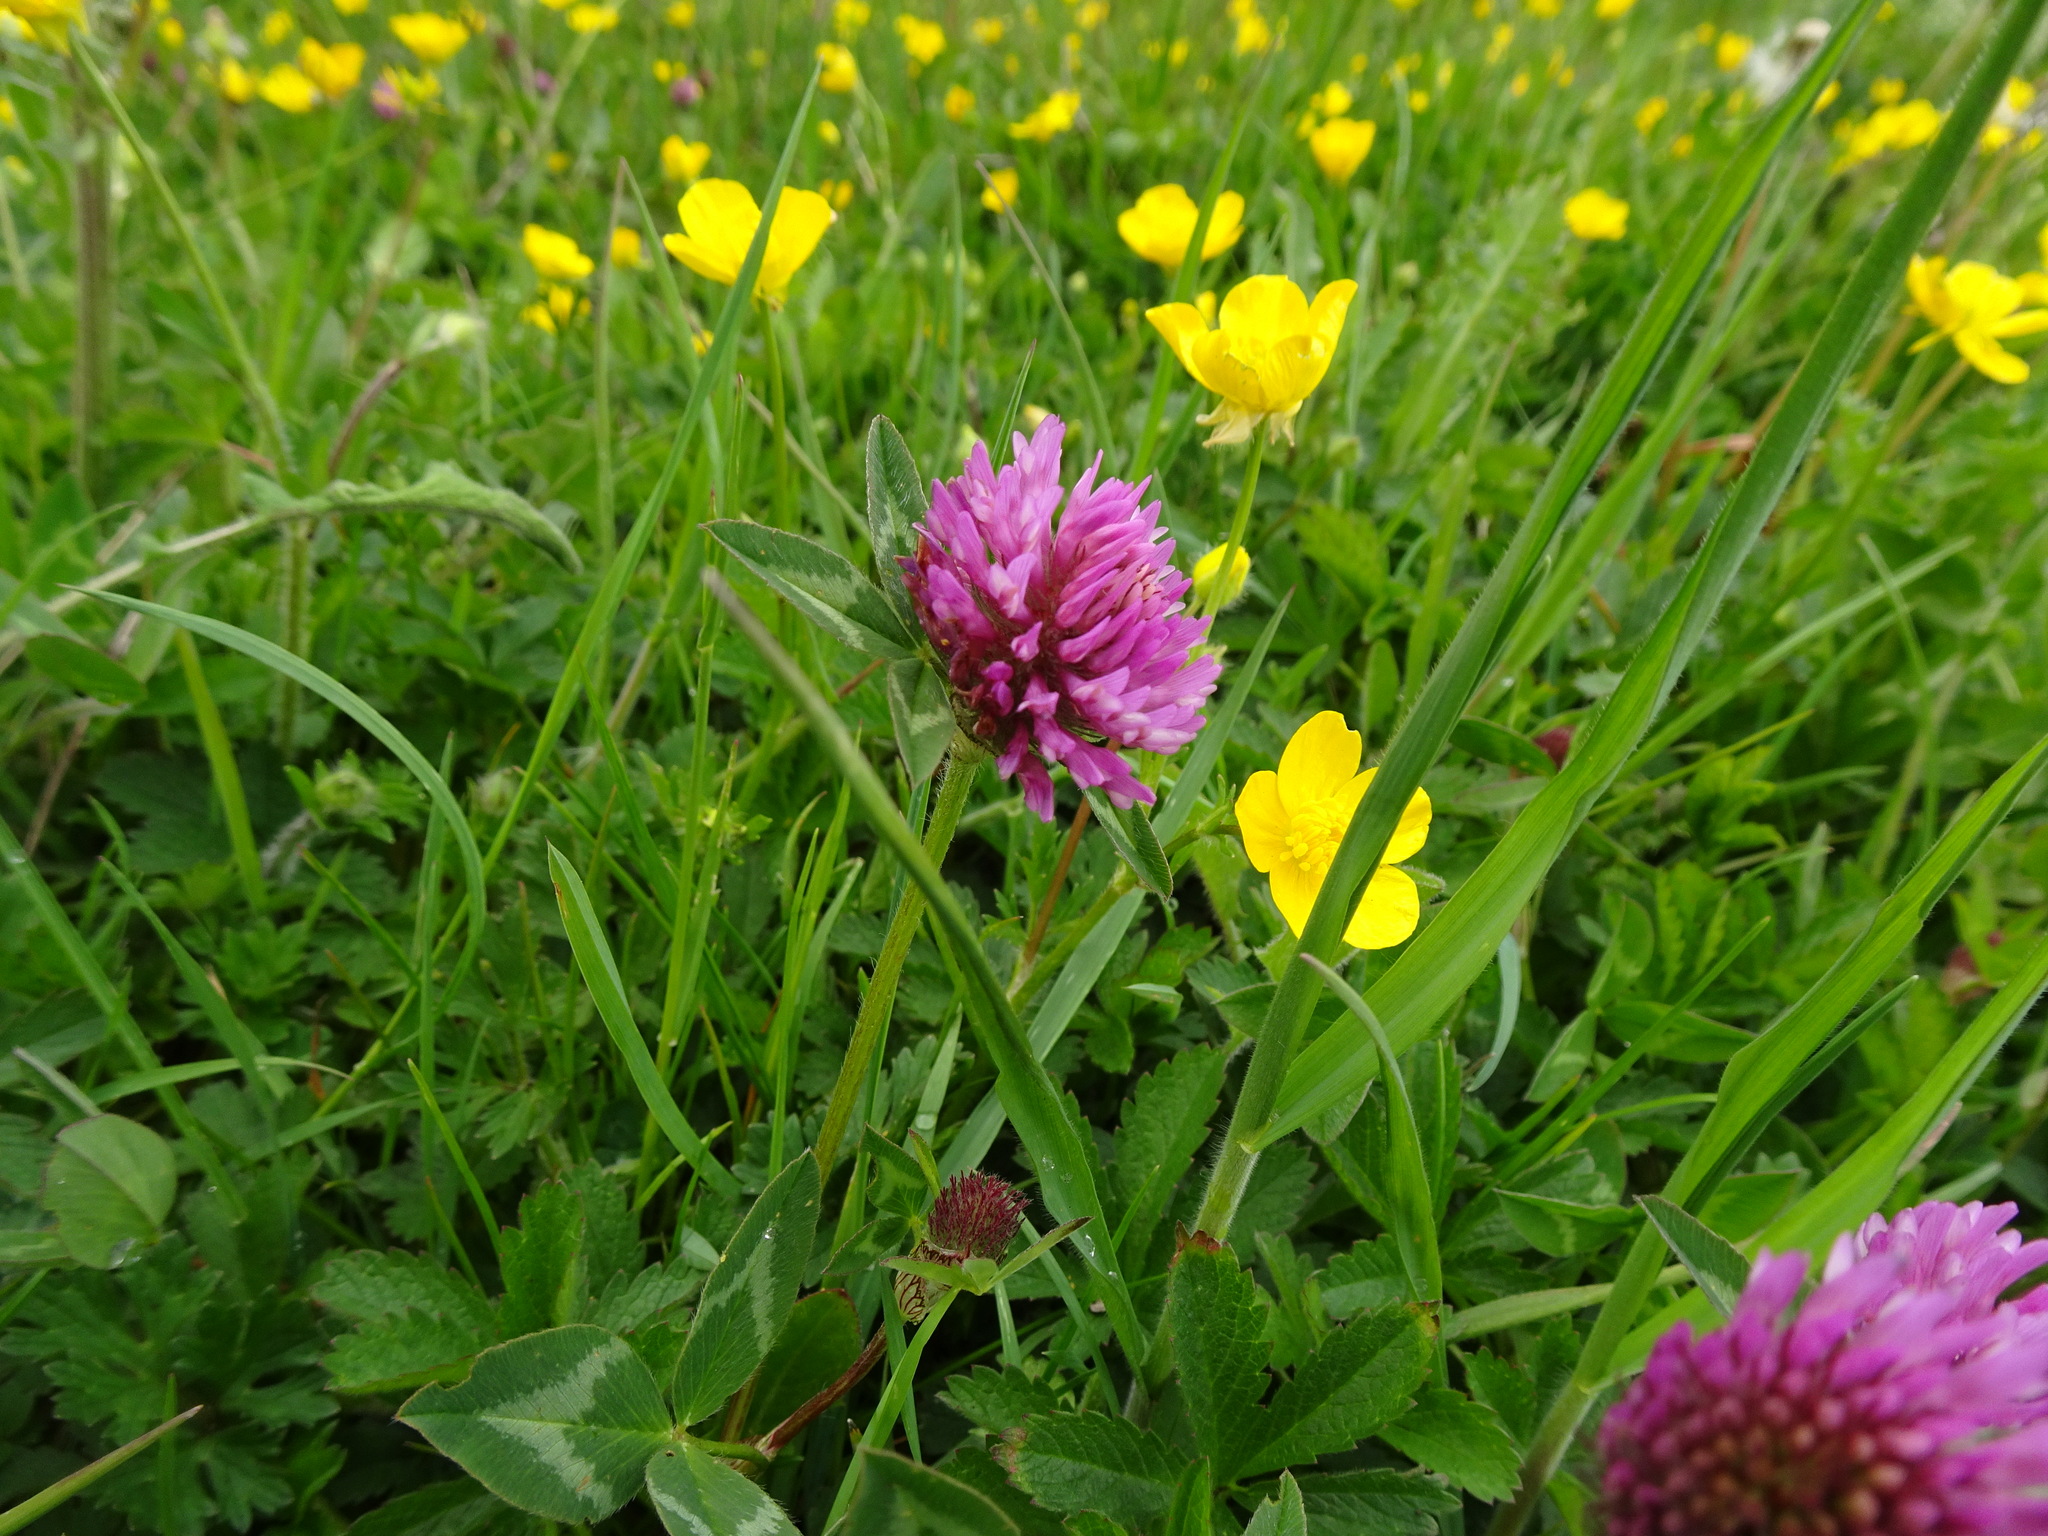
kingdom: Plantae
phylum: Tracheophyta
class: Magnoliopsida
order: Fabales
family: Fabaceae
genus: Trifolium
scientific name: Trifolium pratense
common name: Red clover
